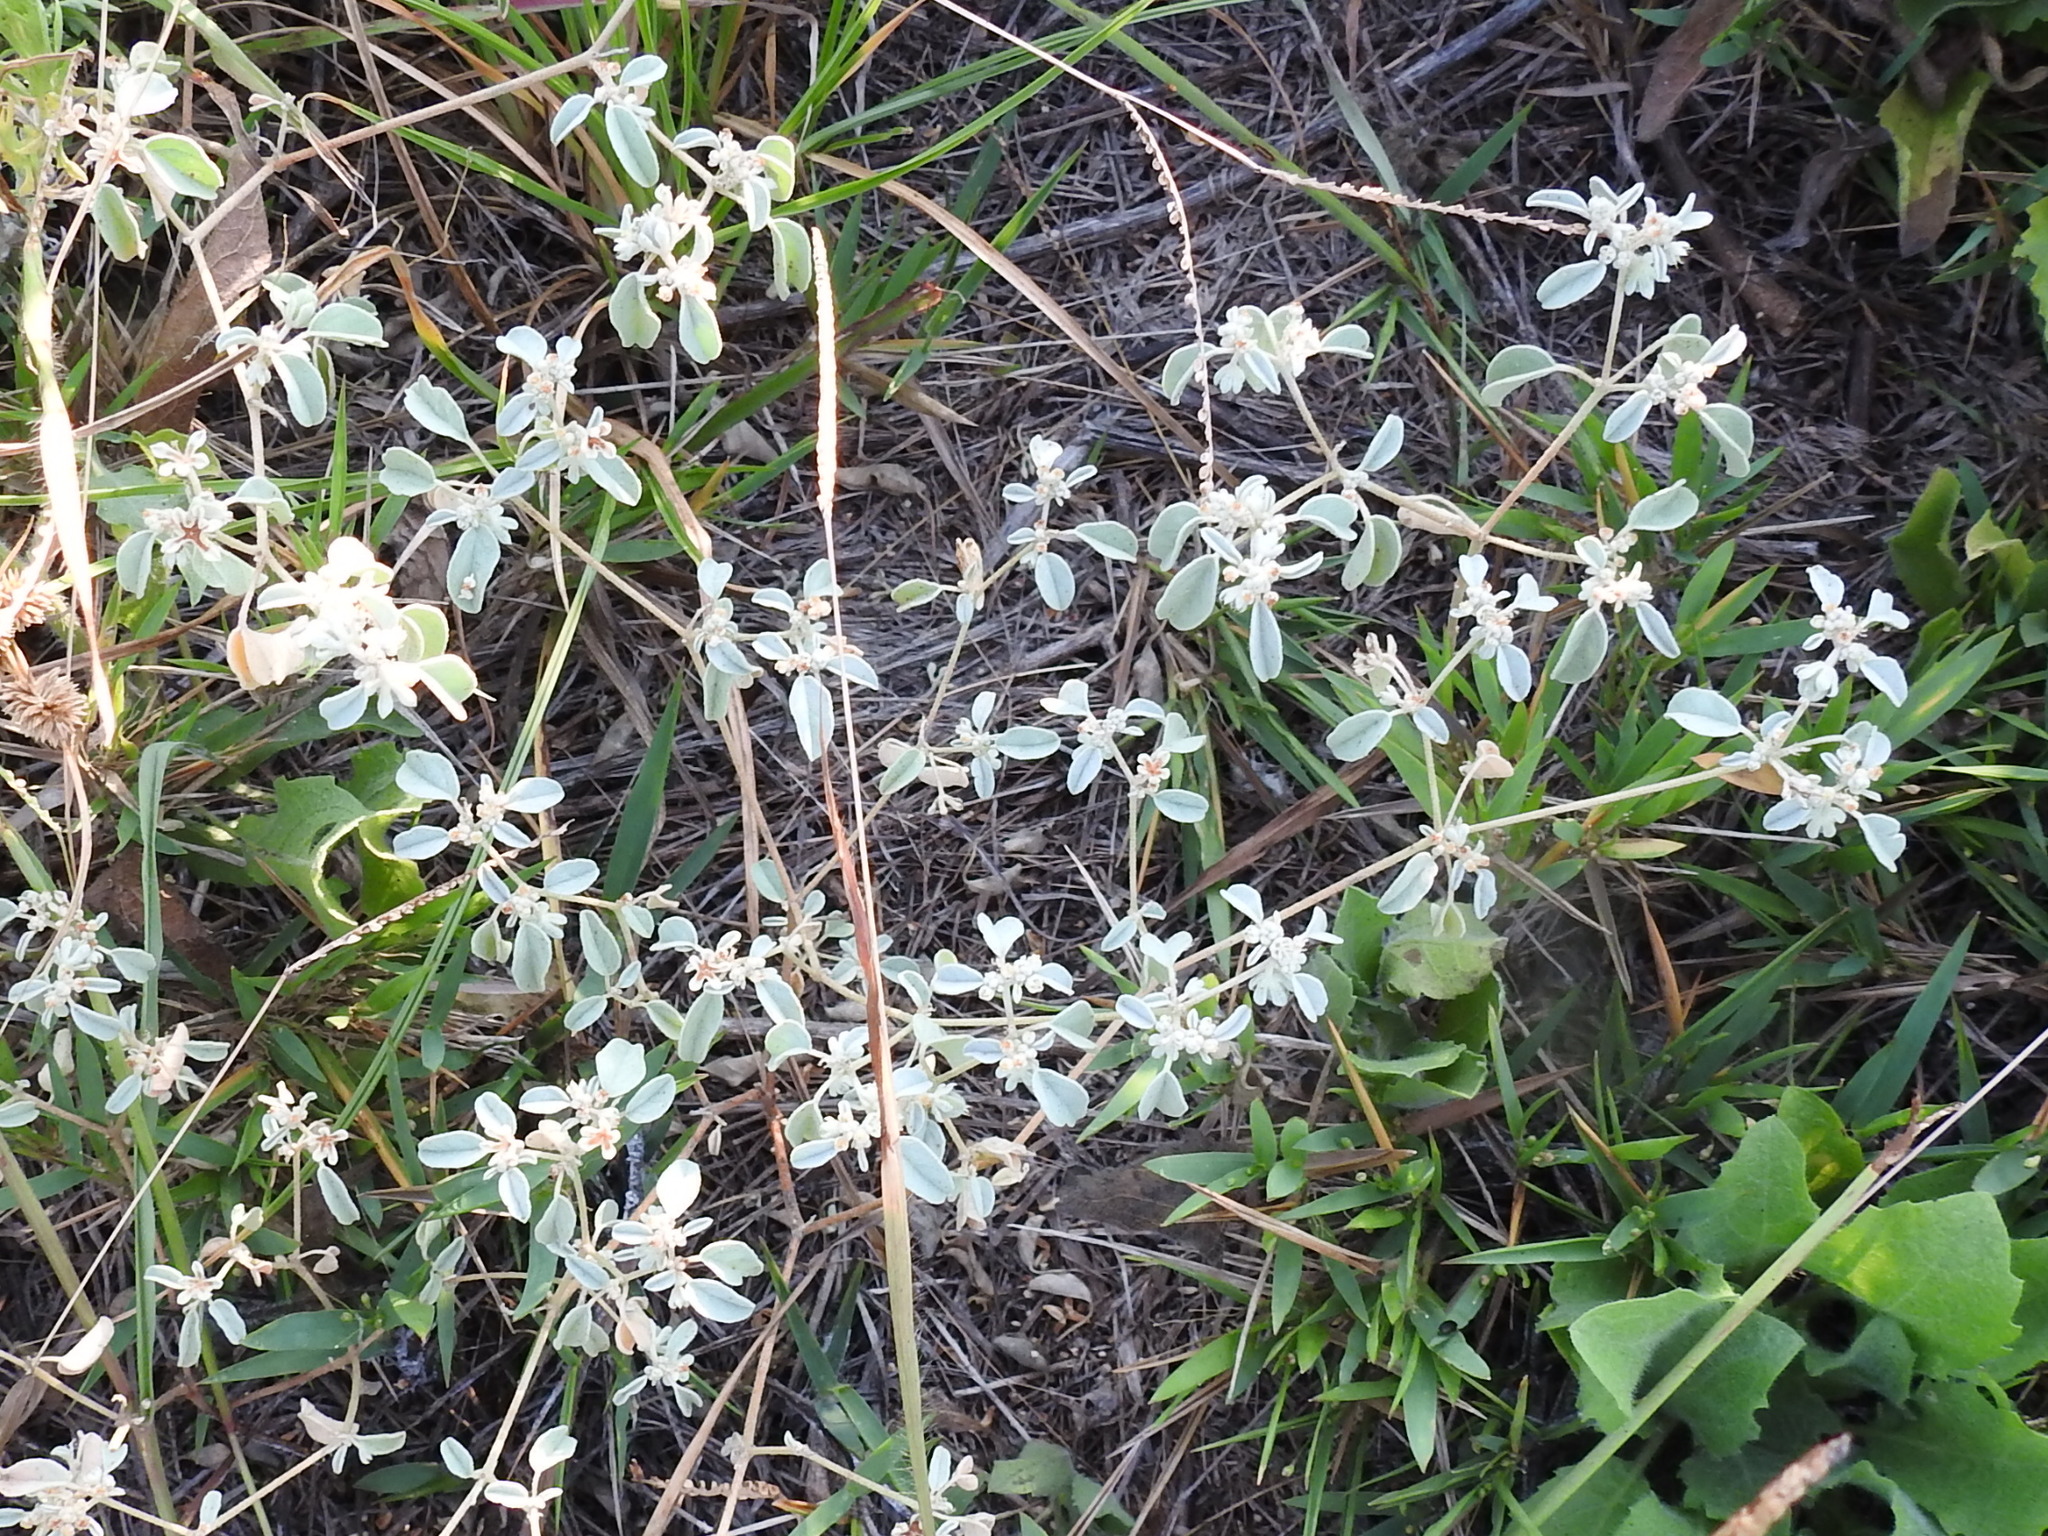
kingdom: Plantae
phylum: Tracheophyta
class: Magnoliopsida
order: Malpighiales
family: Euphorbiaceae
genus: Croton
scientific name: Croton monanthogynus
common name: One-seed croton
